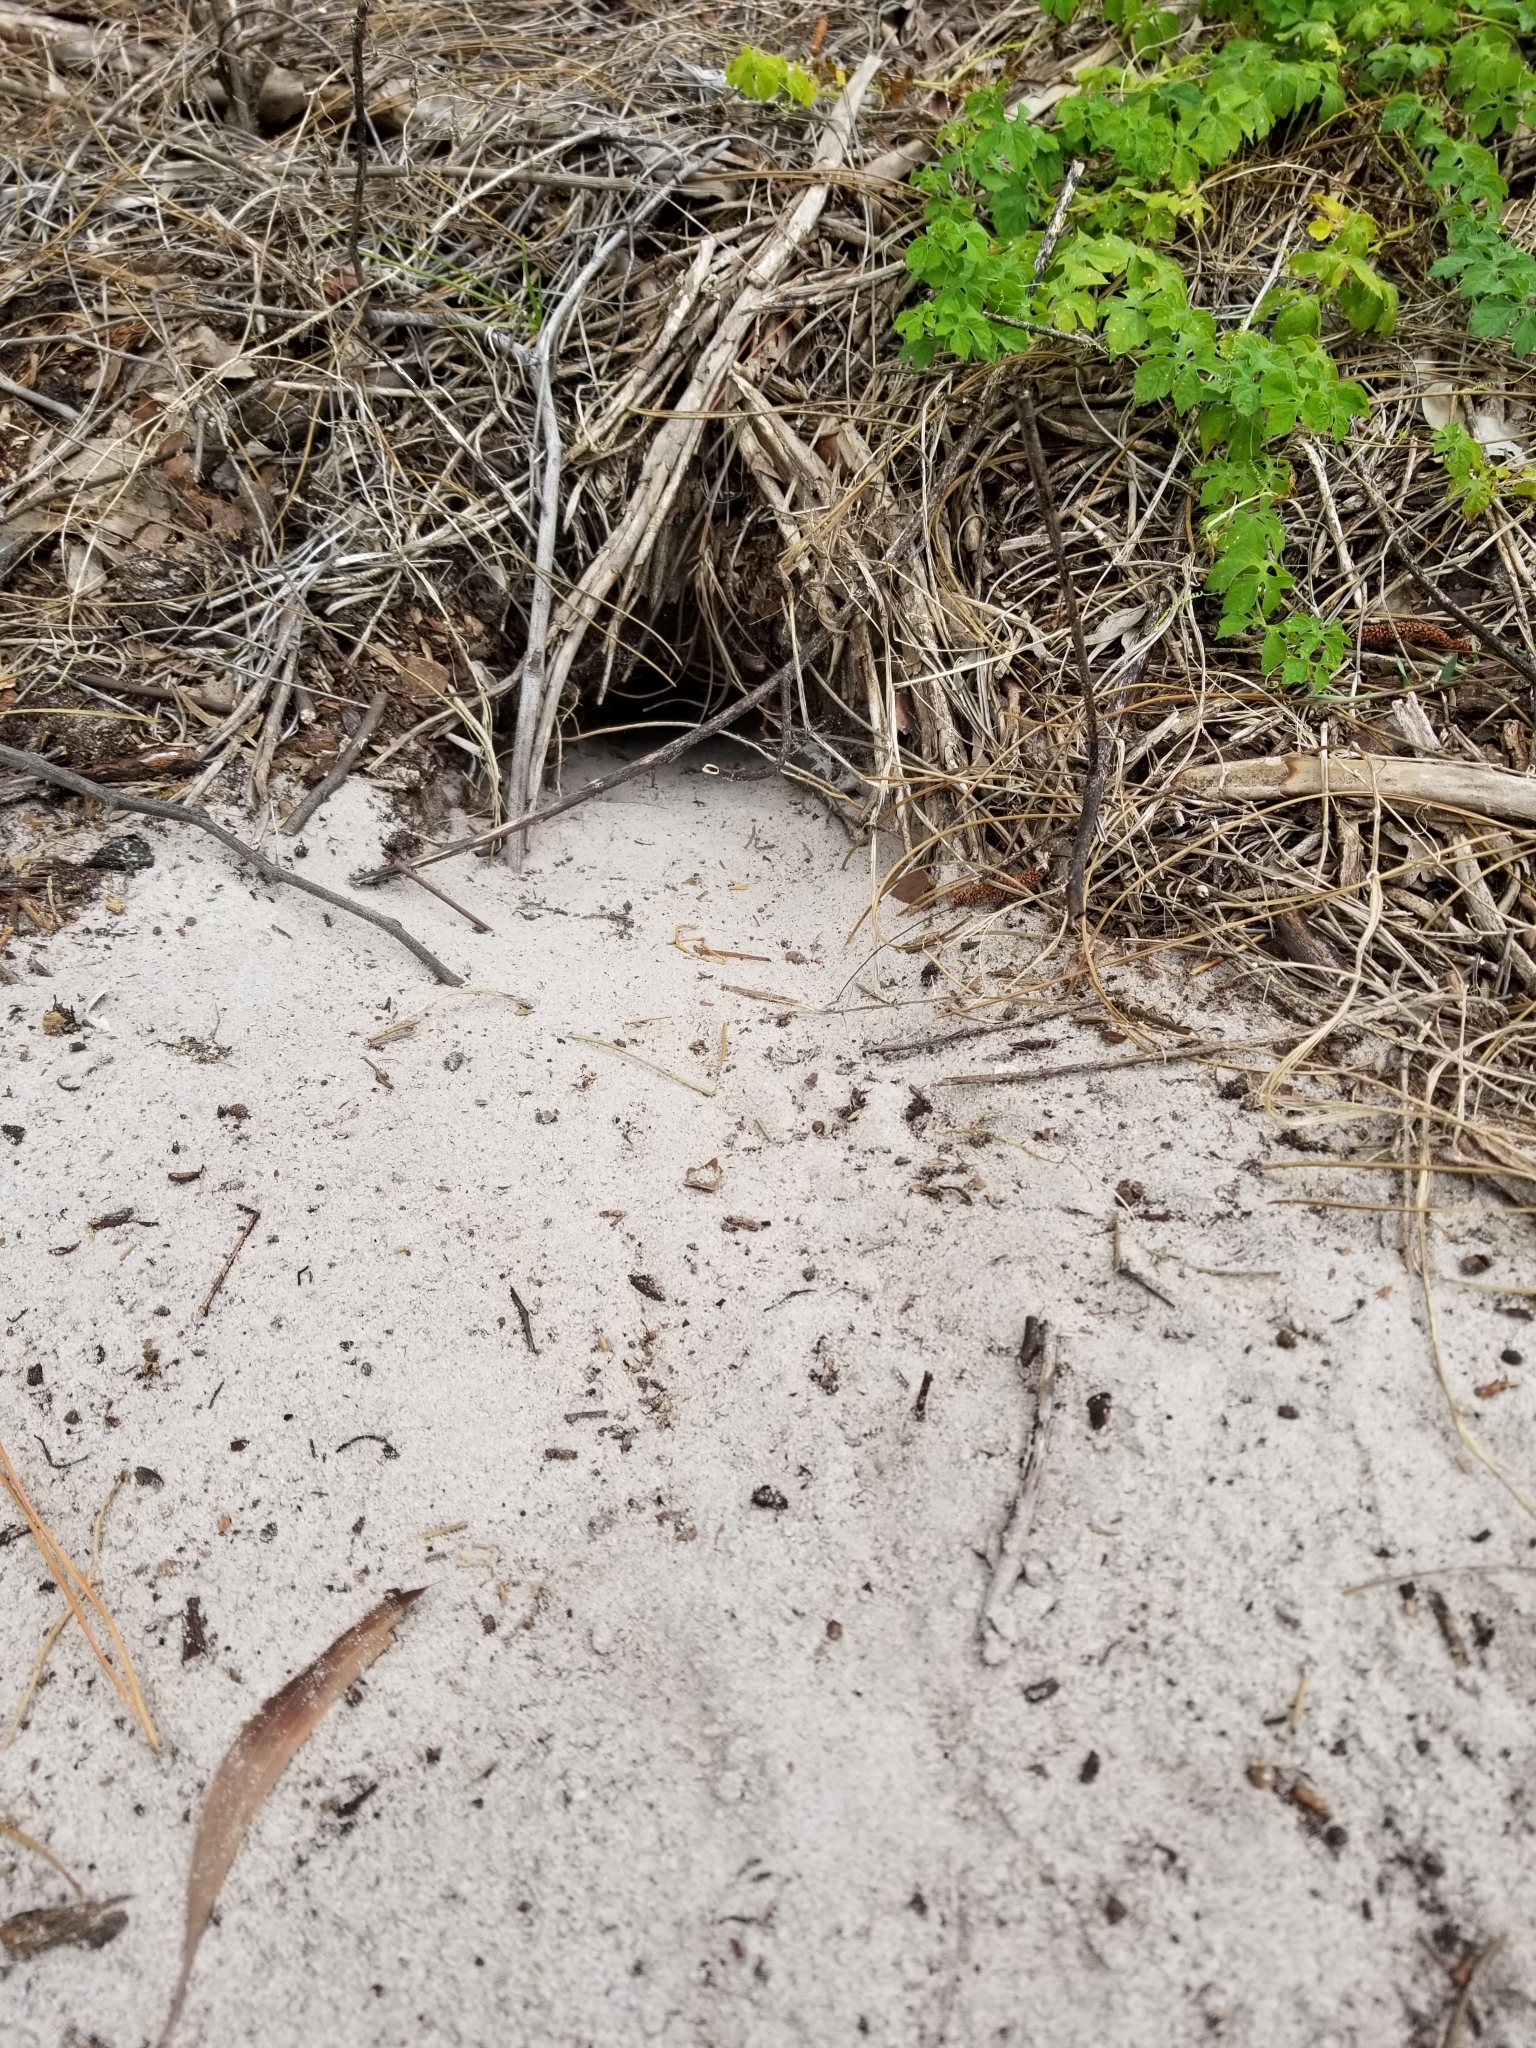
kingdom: Animalia
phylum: Chordata
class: Testudines
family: Testudinidae
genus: Gopherus
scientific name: Gopherus polyphemus
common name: Florida gopher tortoise
